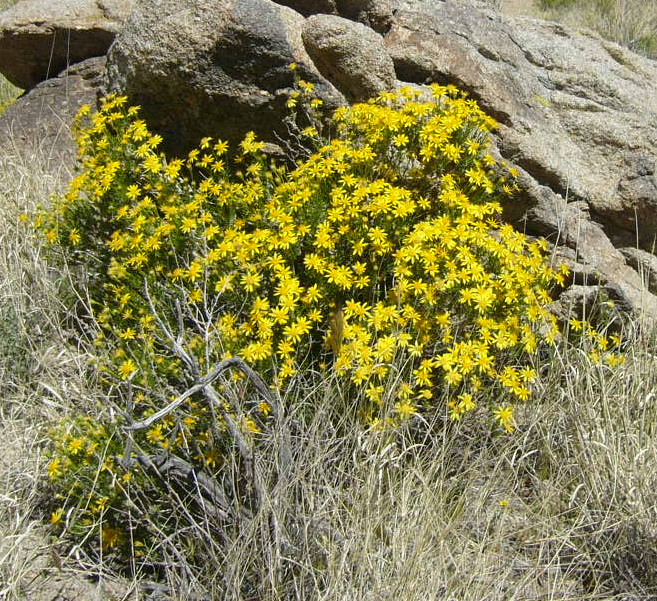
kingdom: Plantae
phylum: Tracheophyta
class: Magnoliopsida
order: Asterales
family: Asteraceae
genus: Ericameria
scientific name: Ericameria linearifolia
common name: Interior goldenbush
